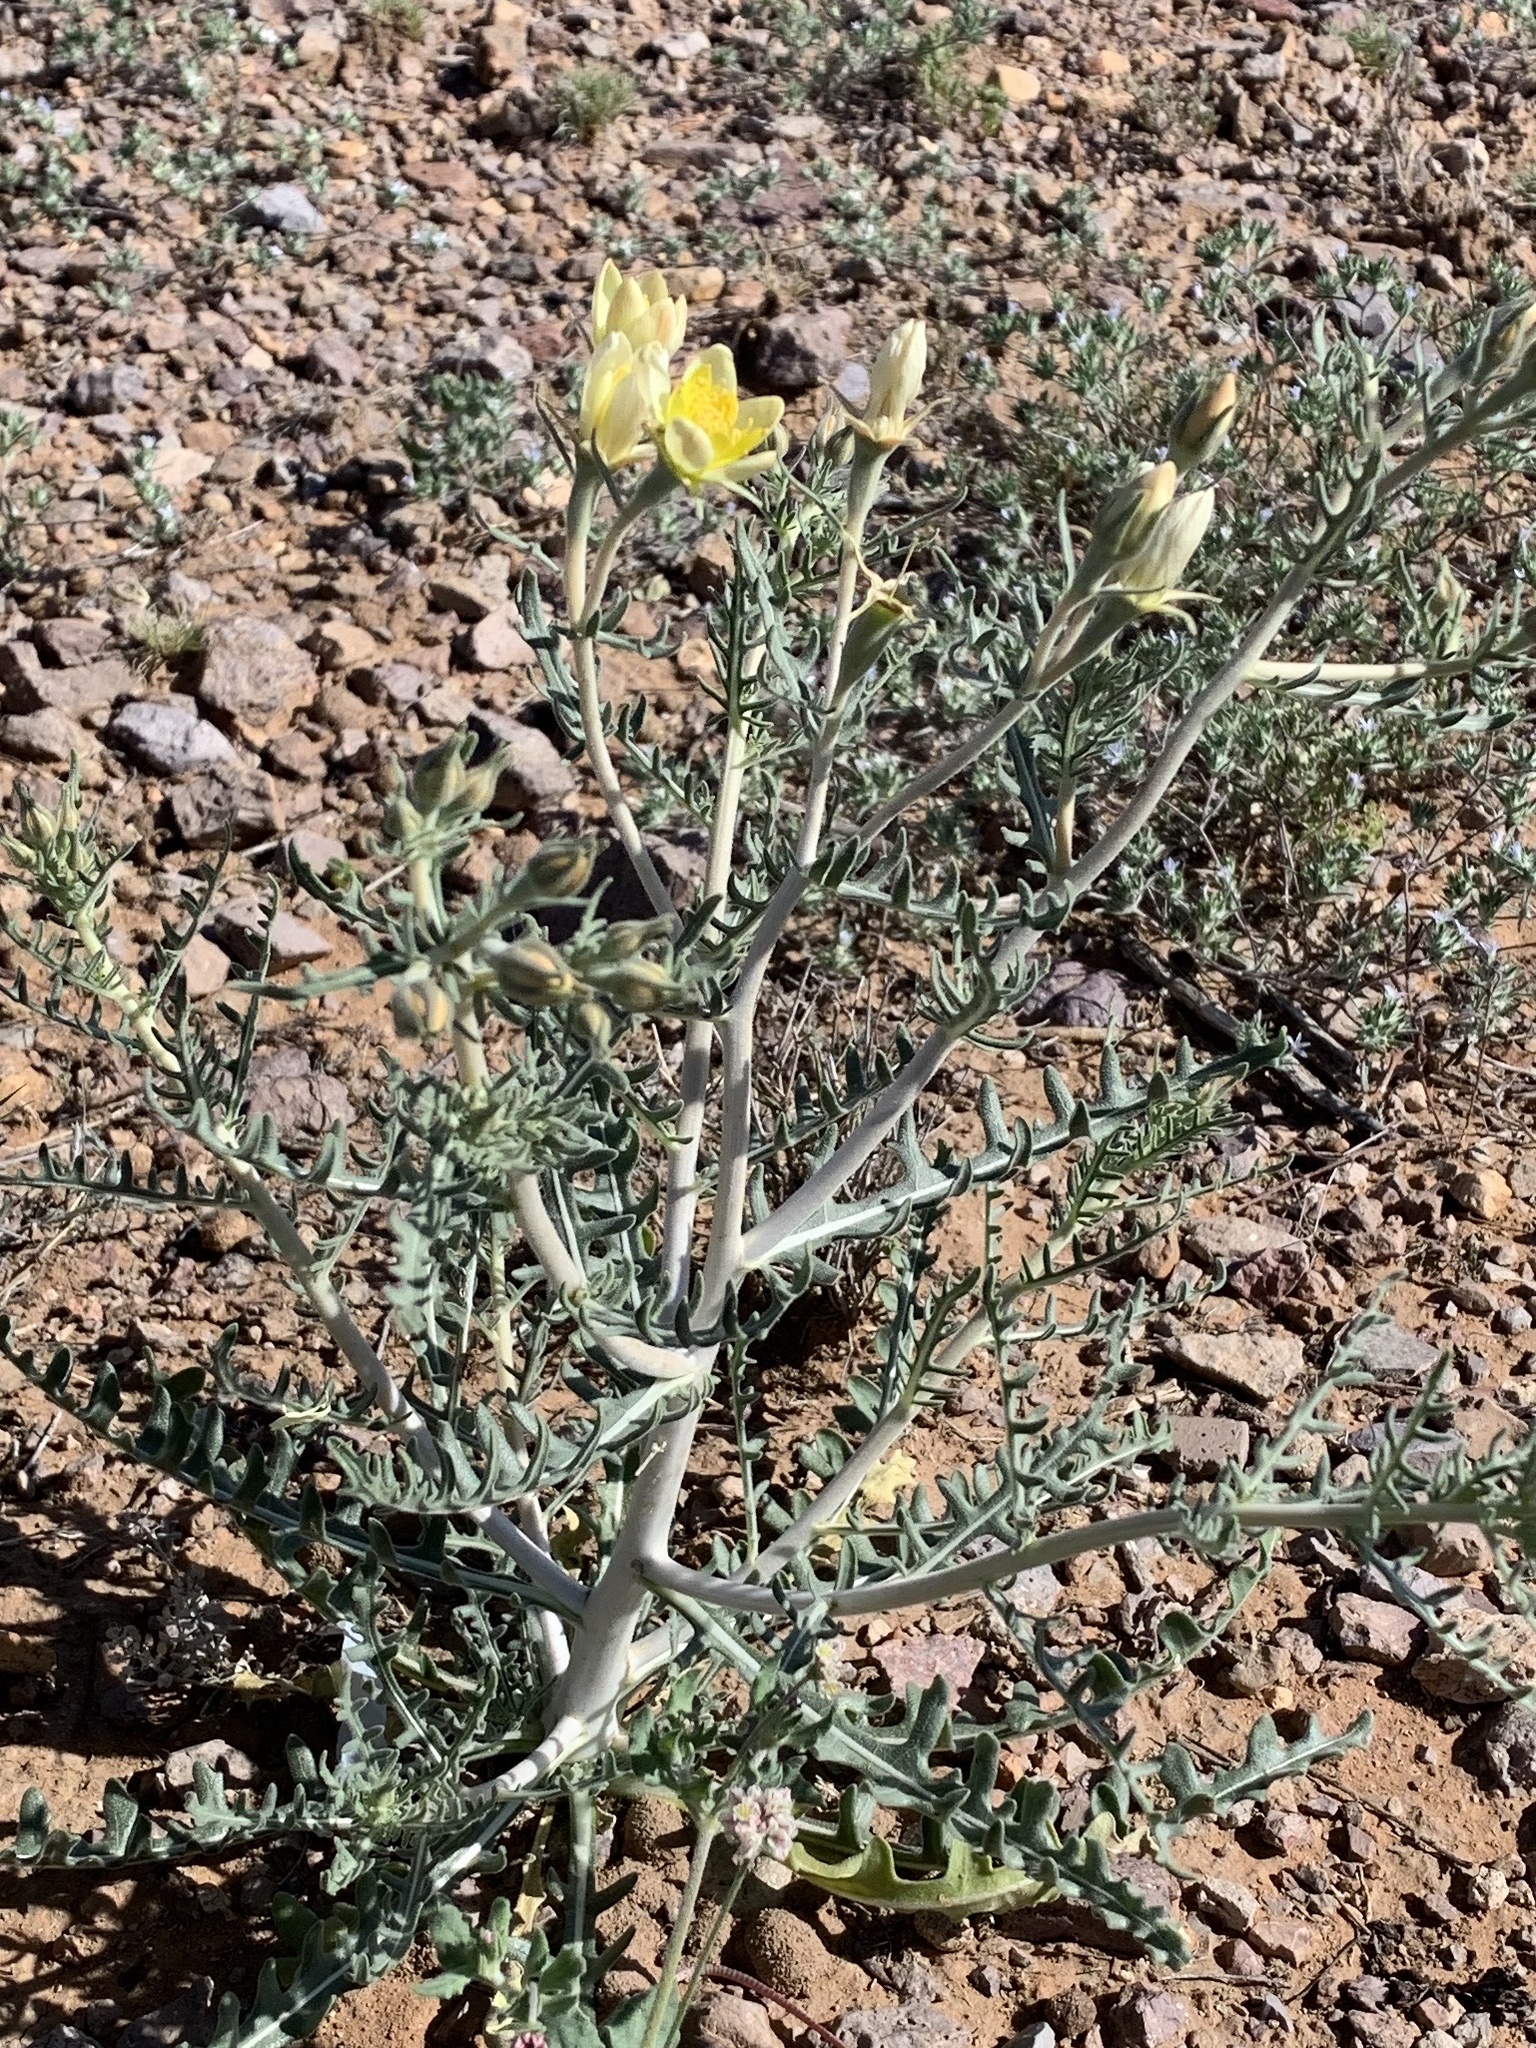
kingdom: Plantae
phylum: Tracheophyta
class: Magnoliopsida
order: Cornales
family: Loasaceae
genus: Mentzelia
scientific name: Mentzelia procera
